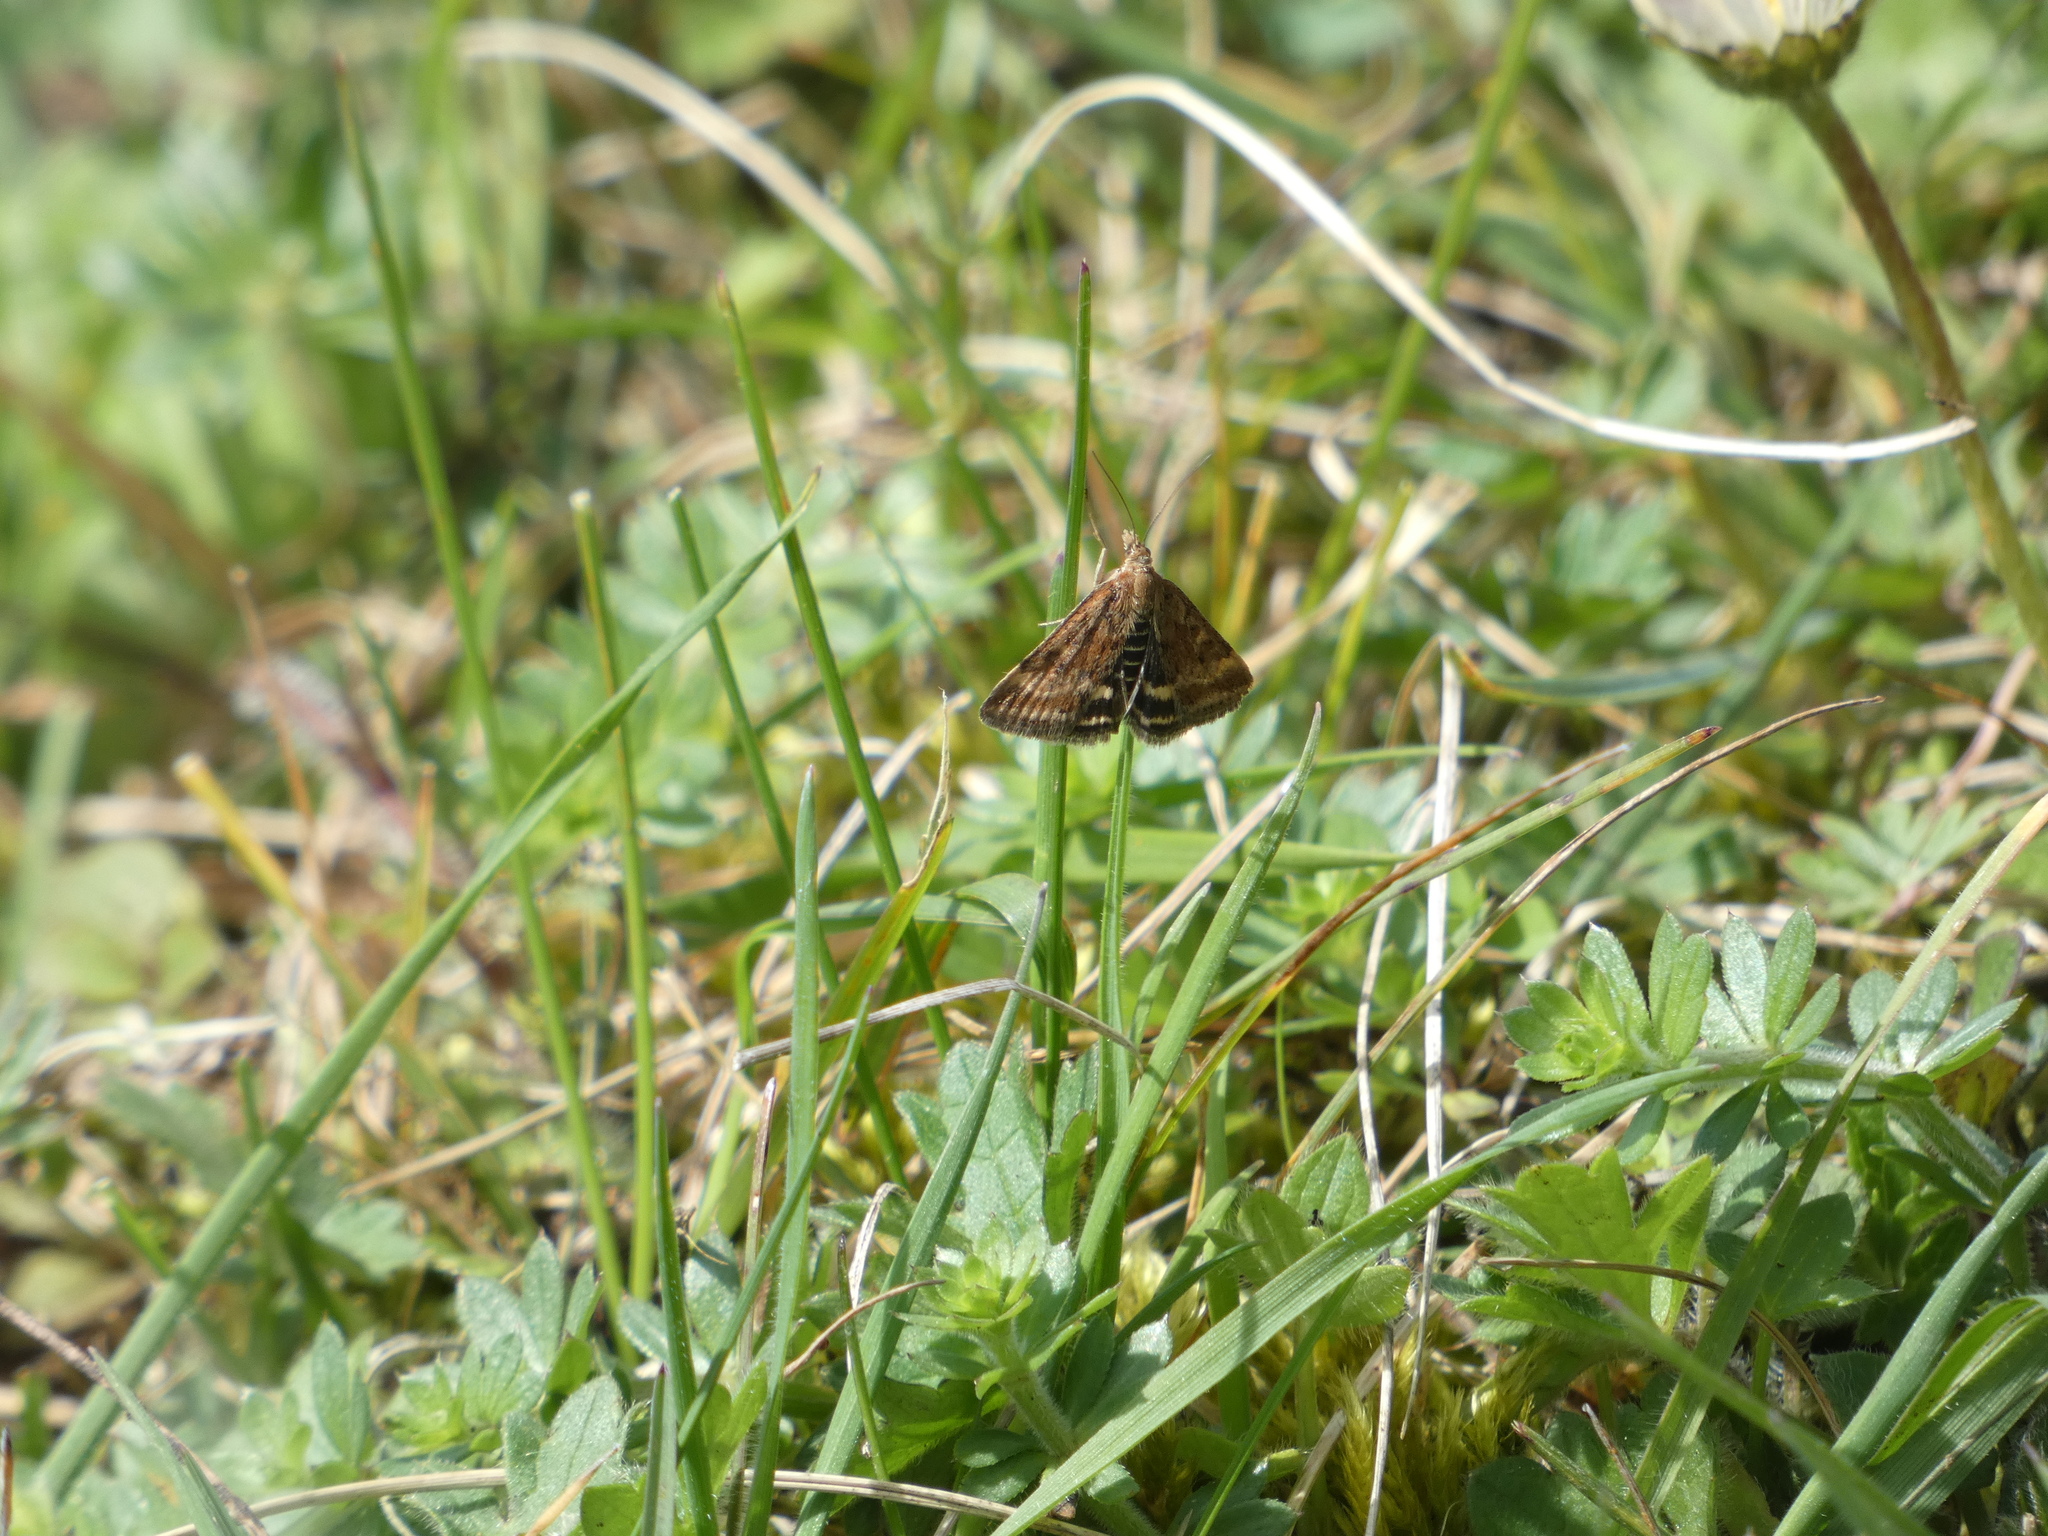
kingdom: Animalia
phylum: Arthropoda
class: Insecta
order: Lepidoptera
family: Crambidae
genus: Pyrausta
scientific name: Pyrausta despicata
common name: Straw-barred pearl
